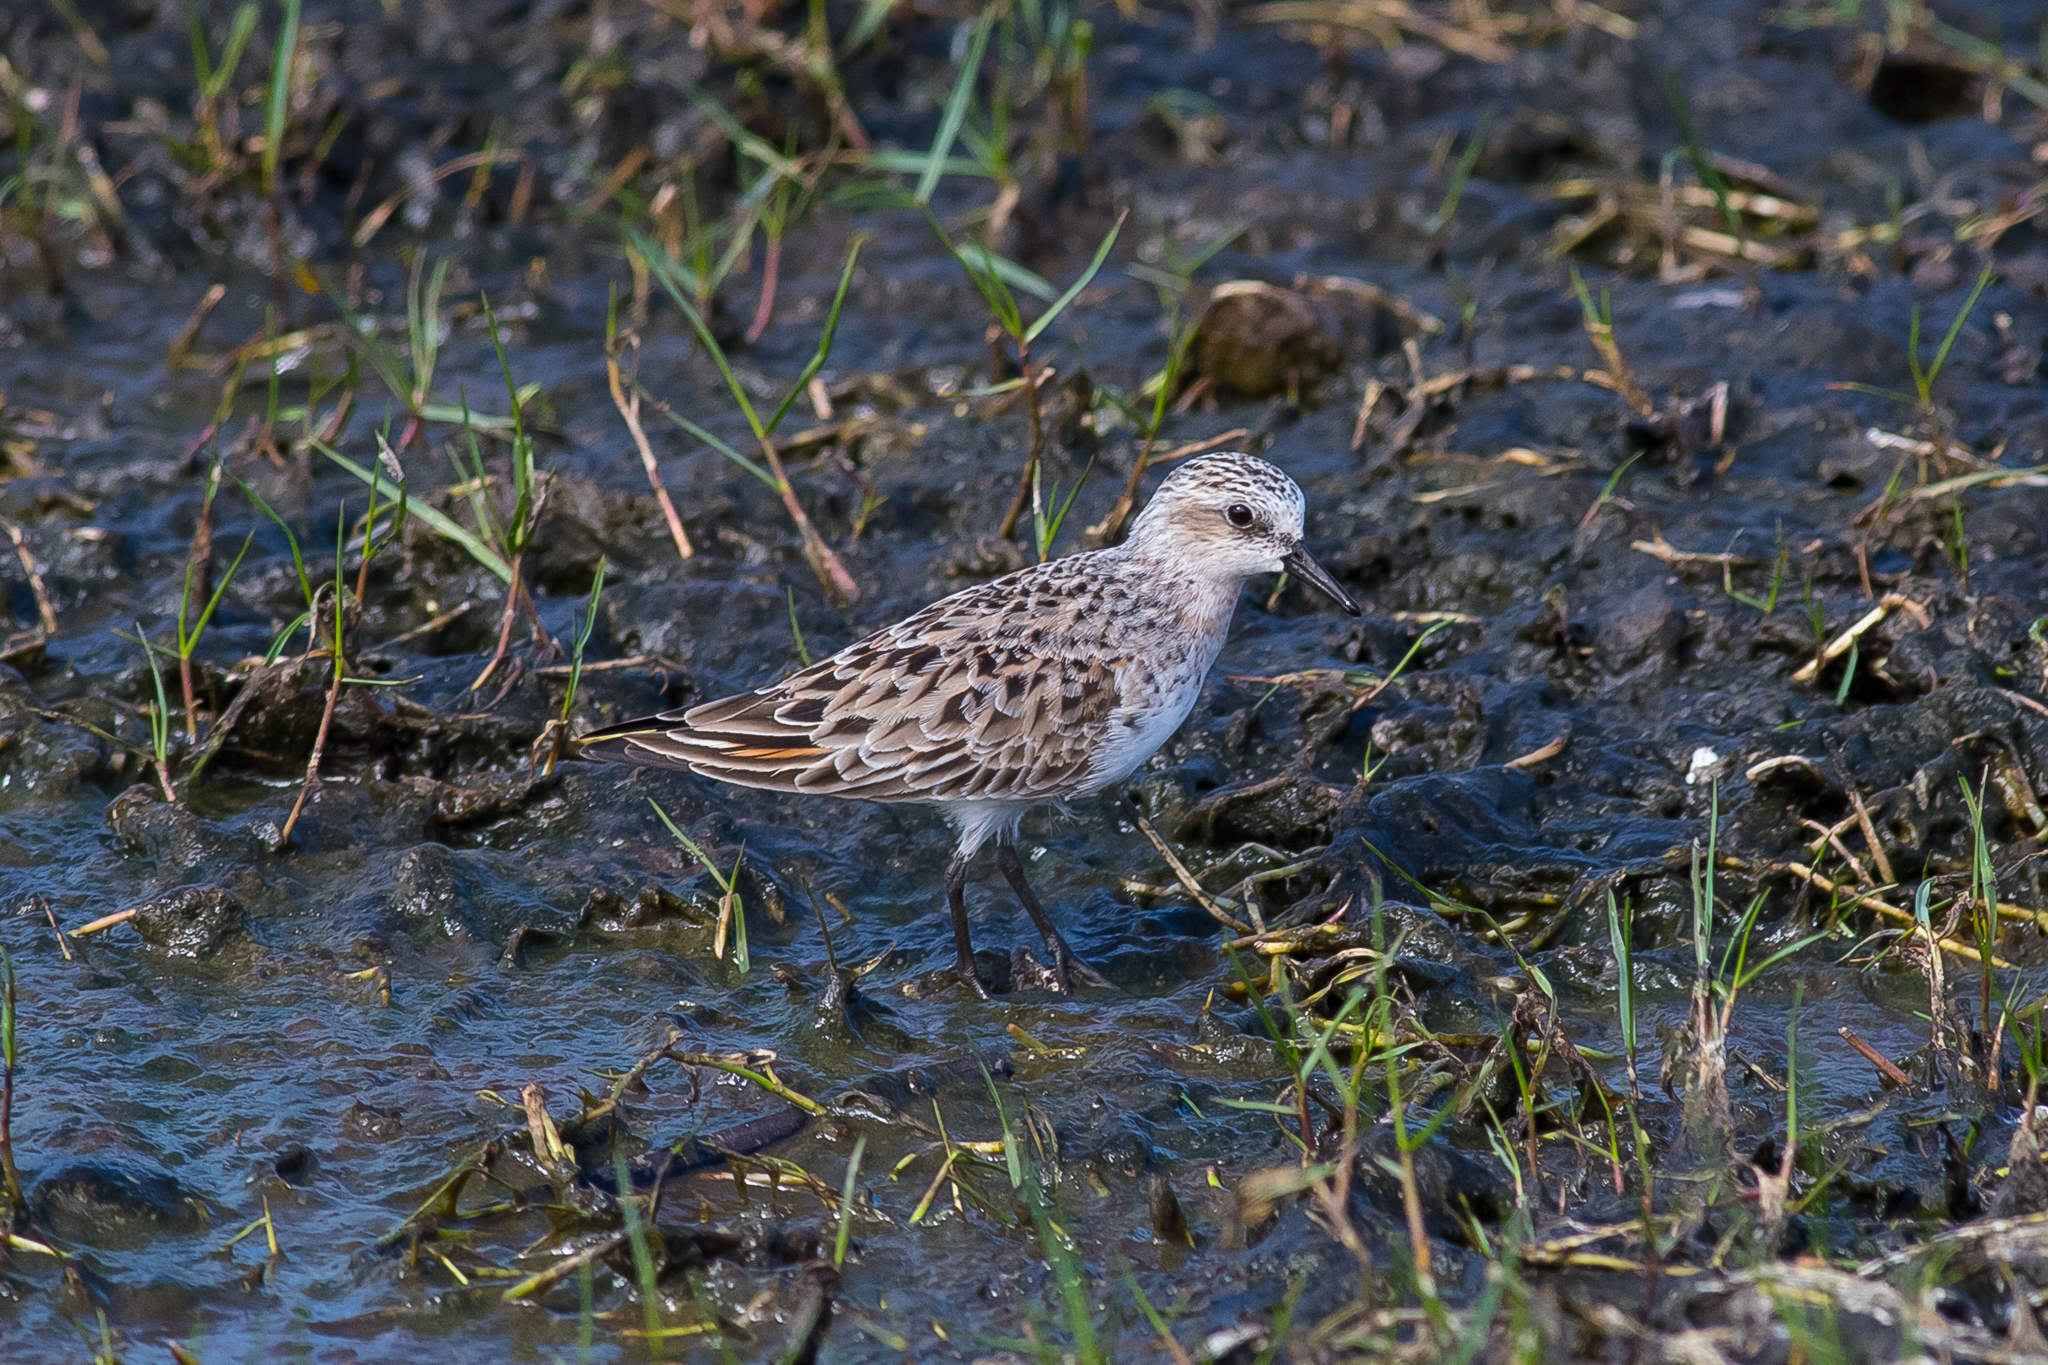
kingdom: Animalia
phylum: Chordata
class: Aves
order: Charadriiformes
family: Scolopacidae
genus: Calidris
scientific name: Calidris ruficollis
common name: Red-necked stint
